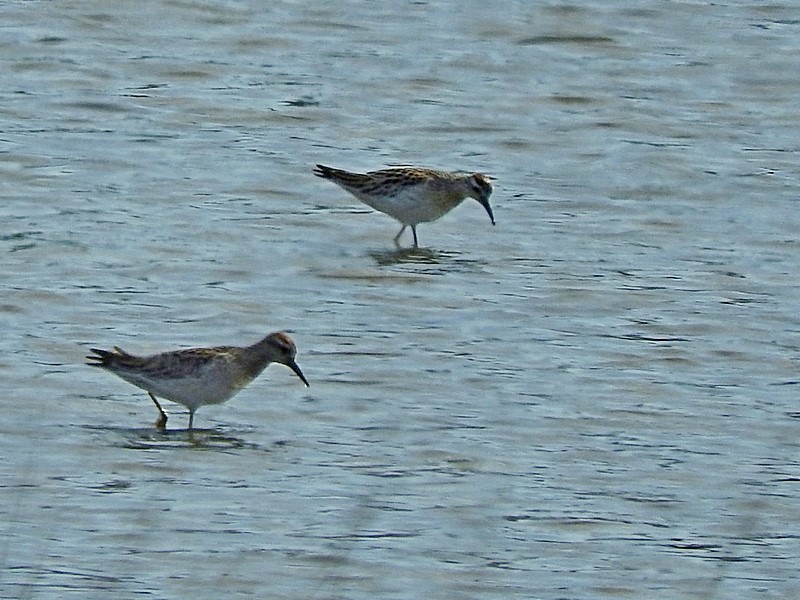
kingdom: Animalia
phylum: Chordata
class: Aves
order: Charadriiformes
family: Scolopacidae
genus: Calidris
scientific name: Calidris acuminata
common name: Sharp-tailed sandpiper
